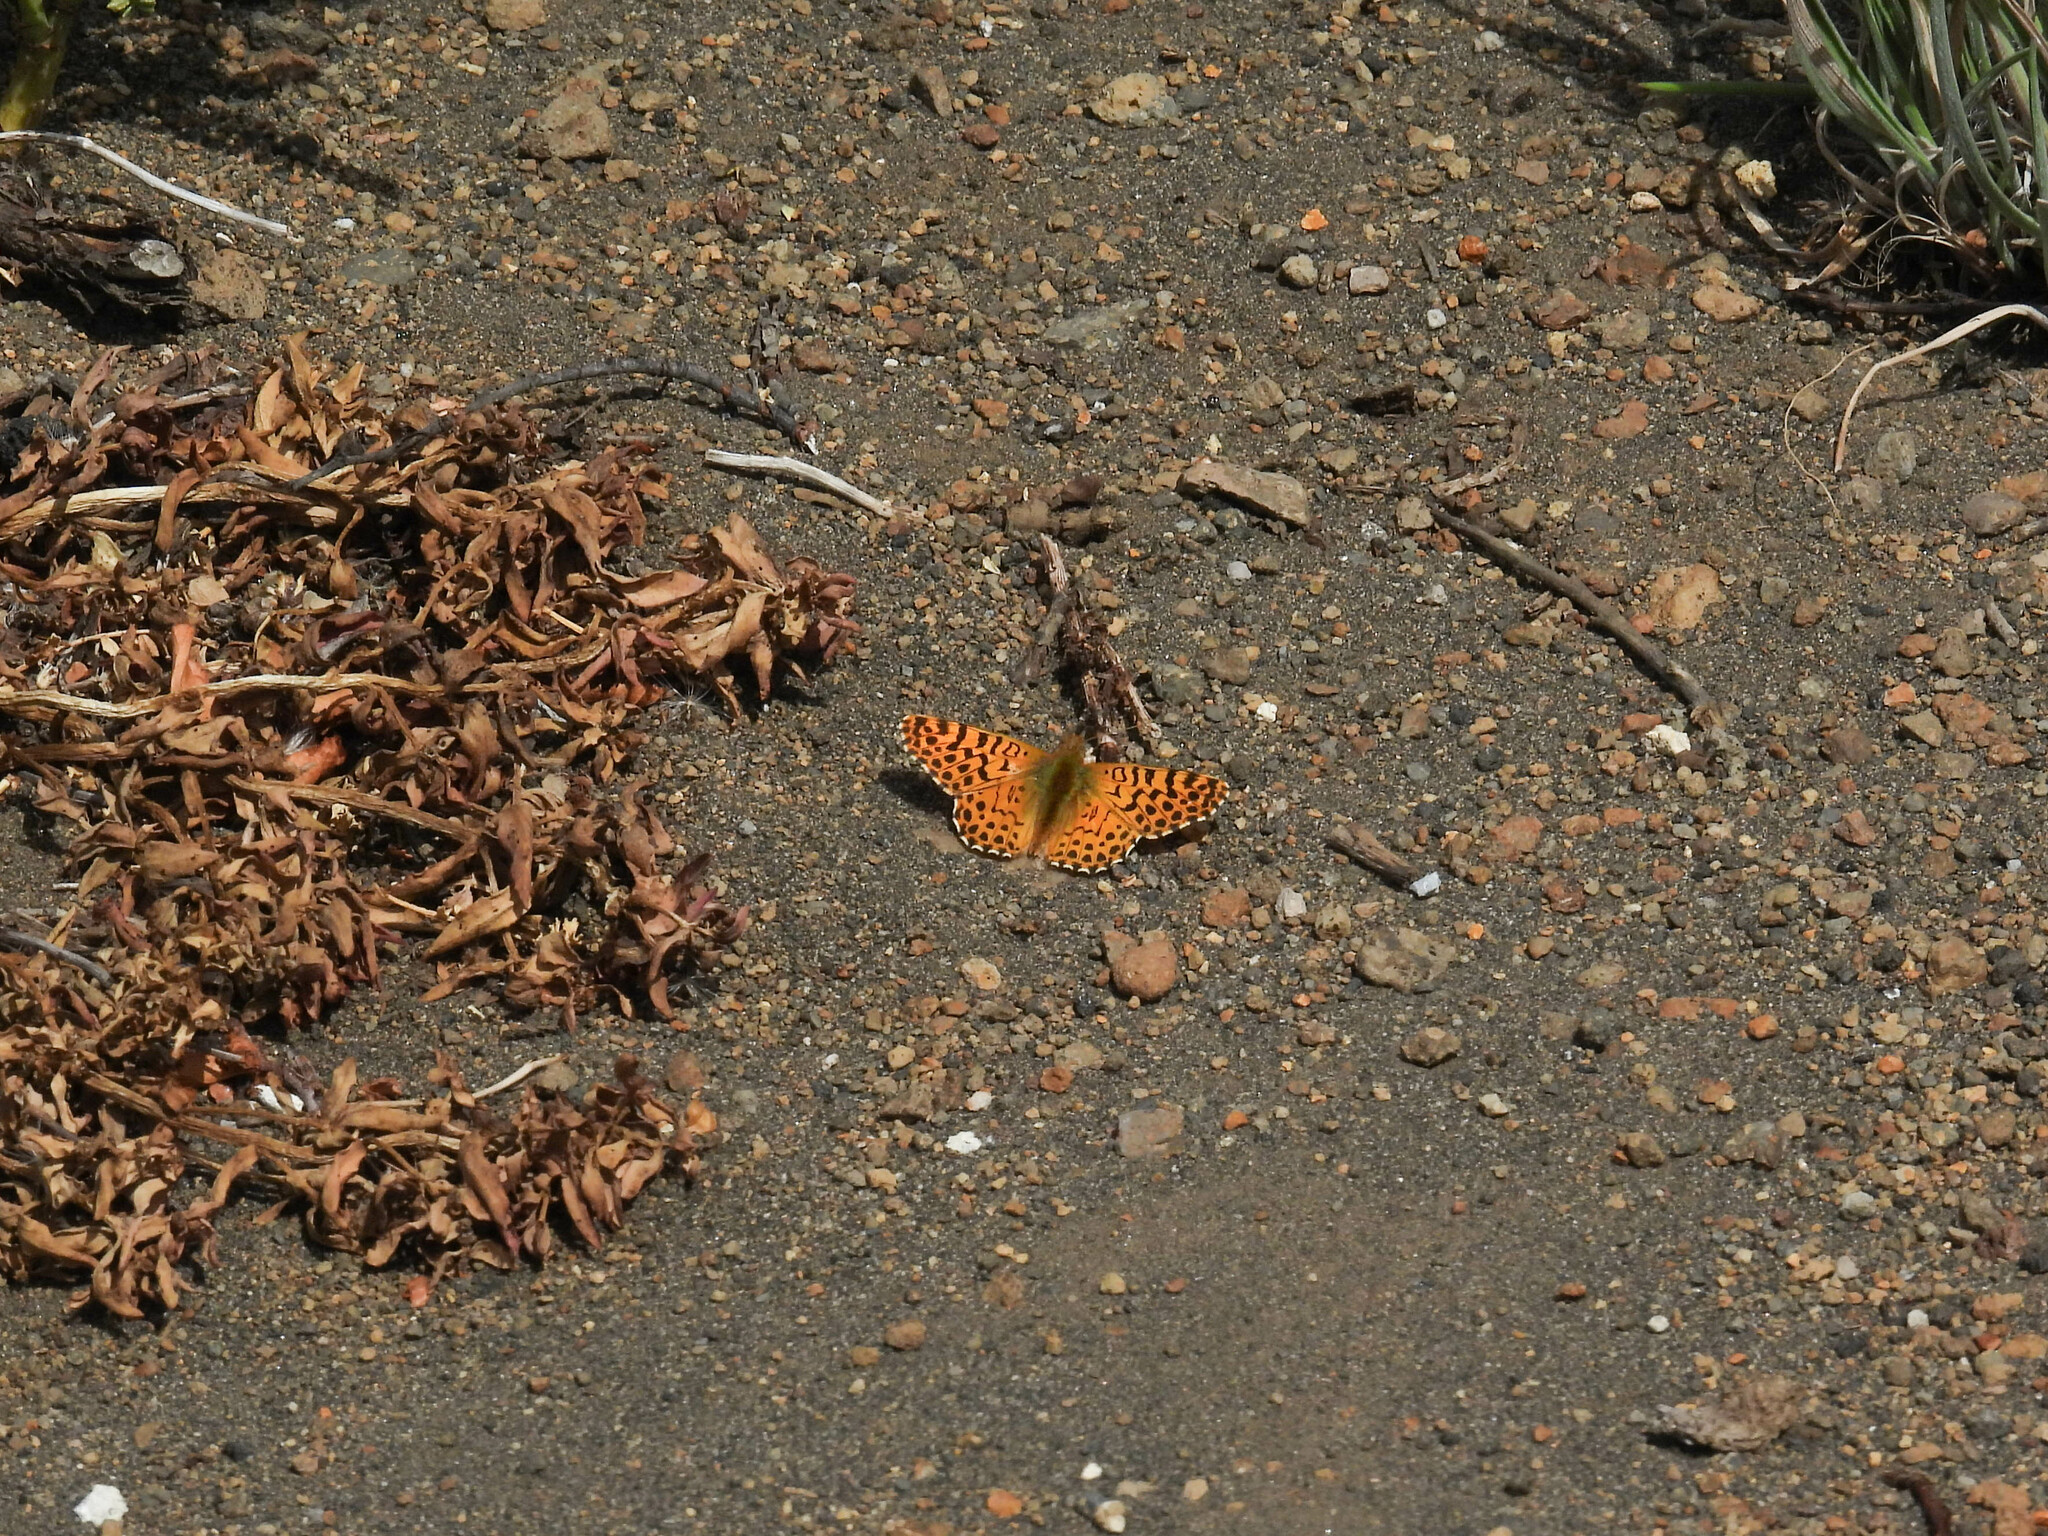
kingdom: Animalia
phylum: Arthropoda
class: Insecta
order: Lepidoptera
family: Nymphalidae
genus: Issoria
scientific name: Issoria Yramea lathonoides
